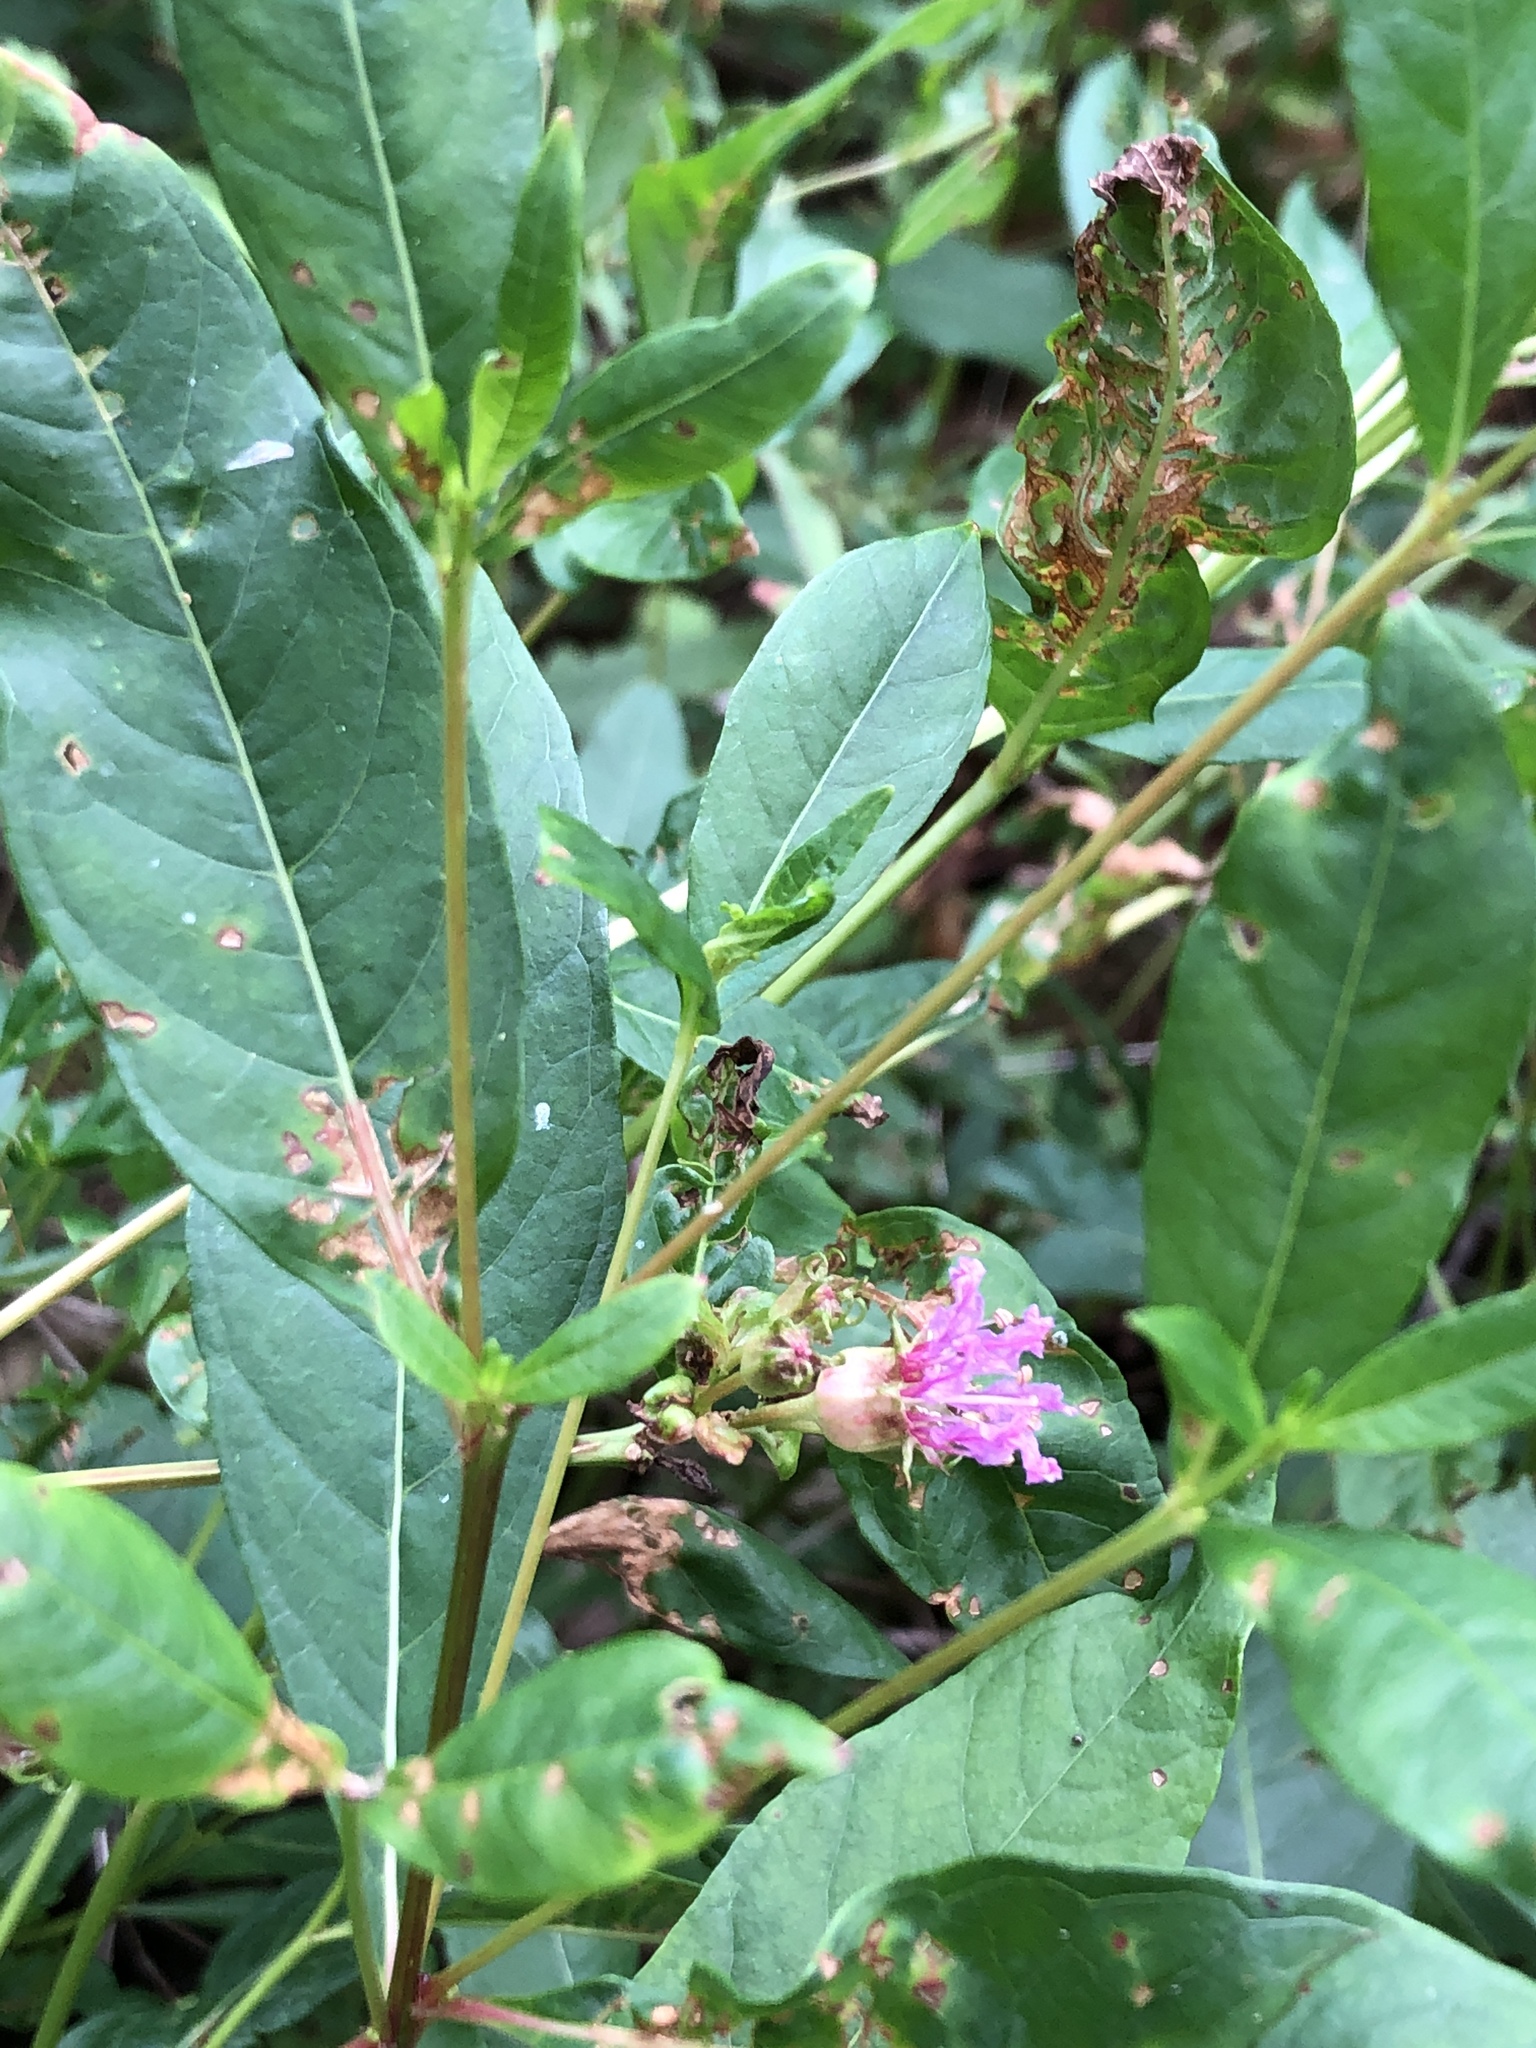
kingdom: Plantae
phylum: Tracheophyta
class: Magnoliopsida
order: Myrtales
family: Lythraceae
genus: Decodon
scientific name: Decodon verticillatus
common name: Hairy swamp loosestrife
